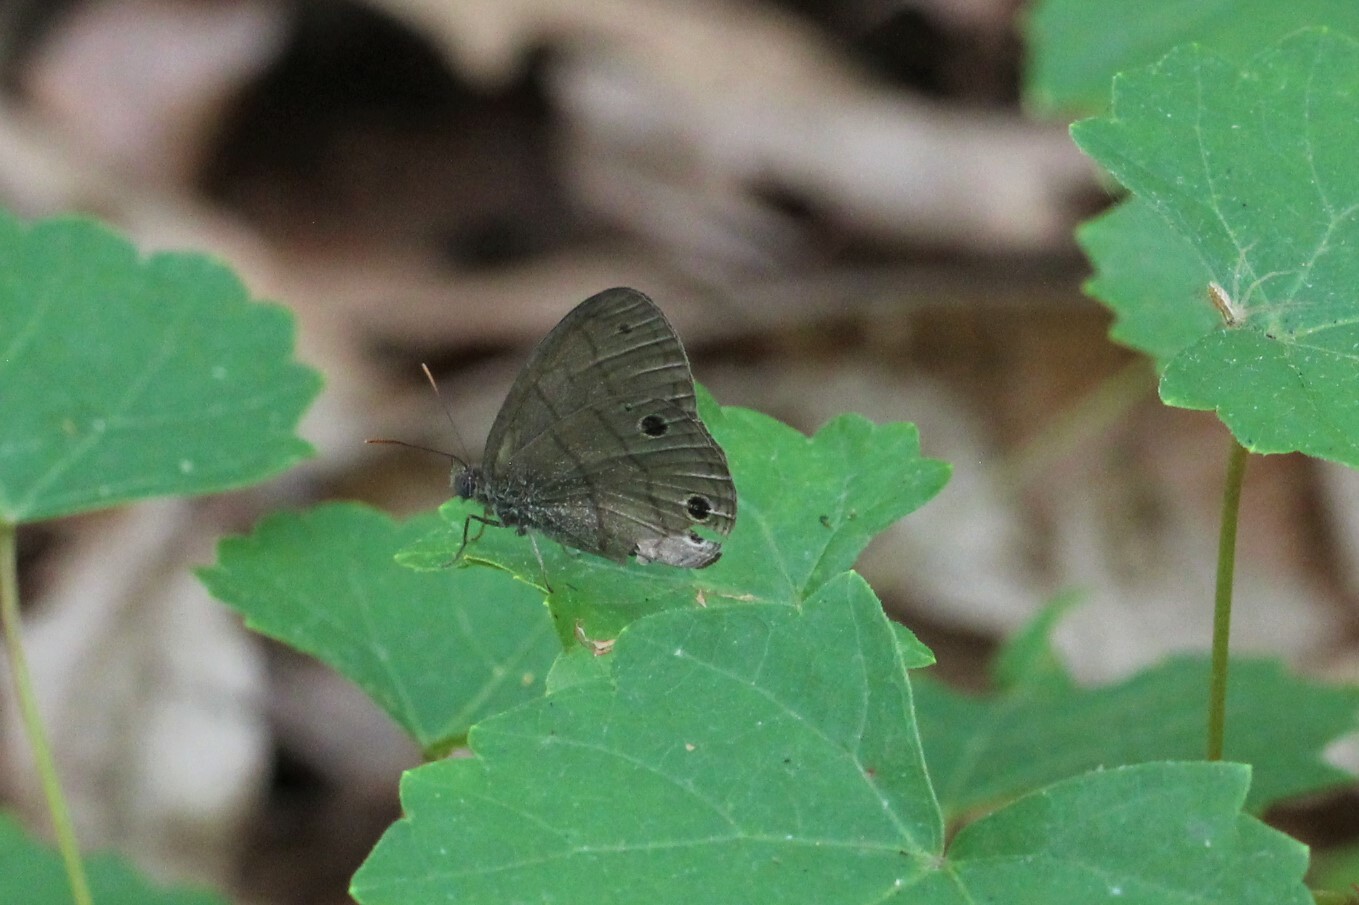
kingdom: Animalia
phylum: Arthropoda
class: Insecta
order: Lepidoptera
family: Nymphalidae
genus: Hermeuptychia
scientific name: Hermeuptychia intricata
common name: Intricate satyr
